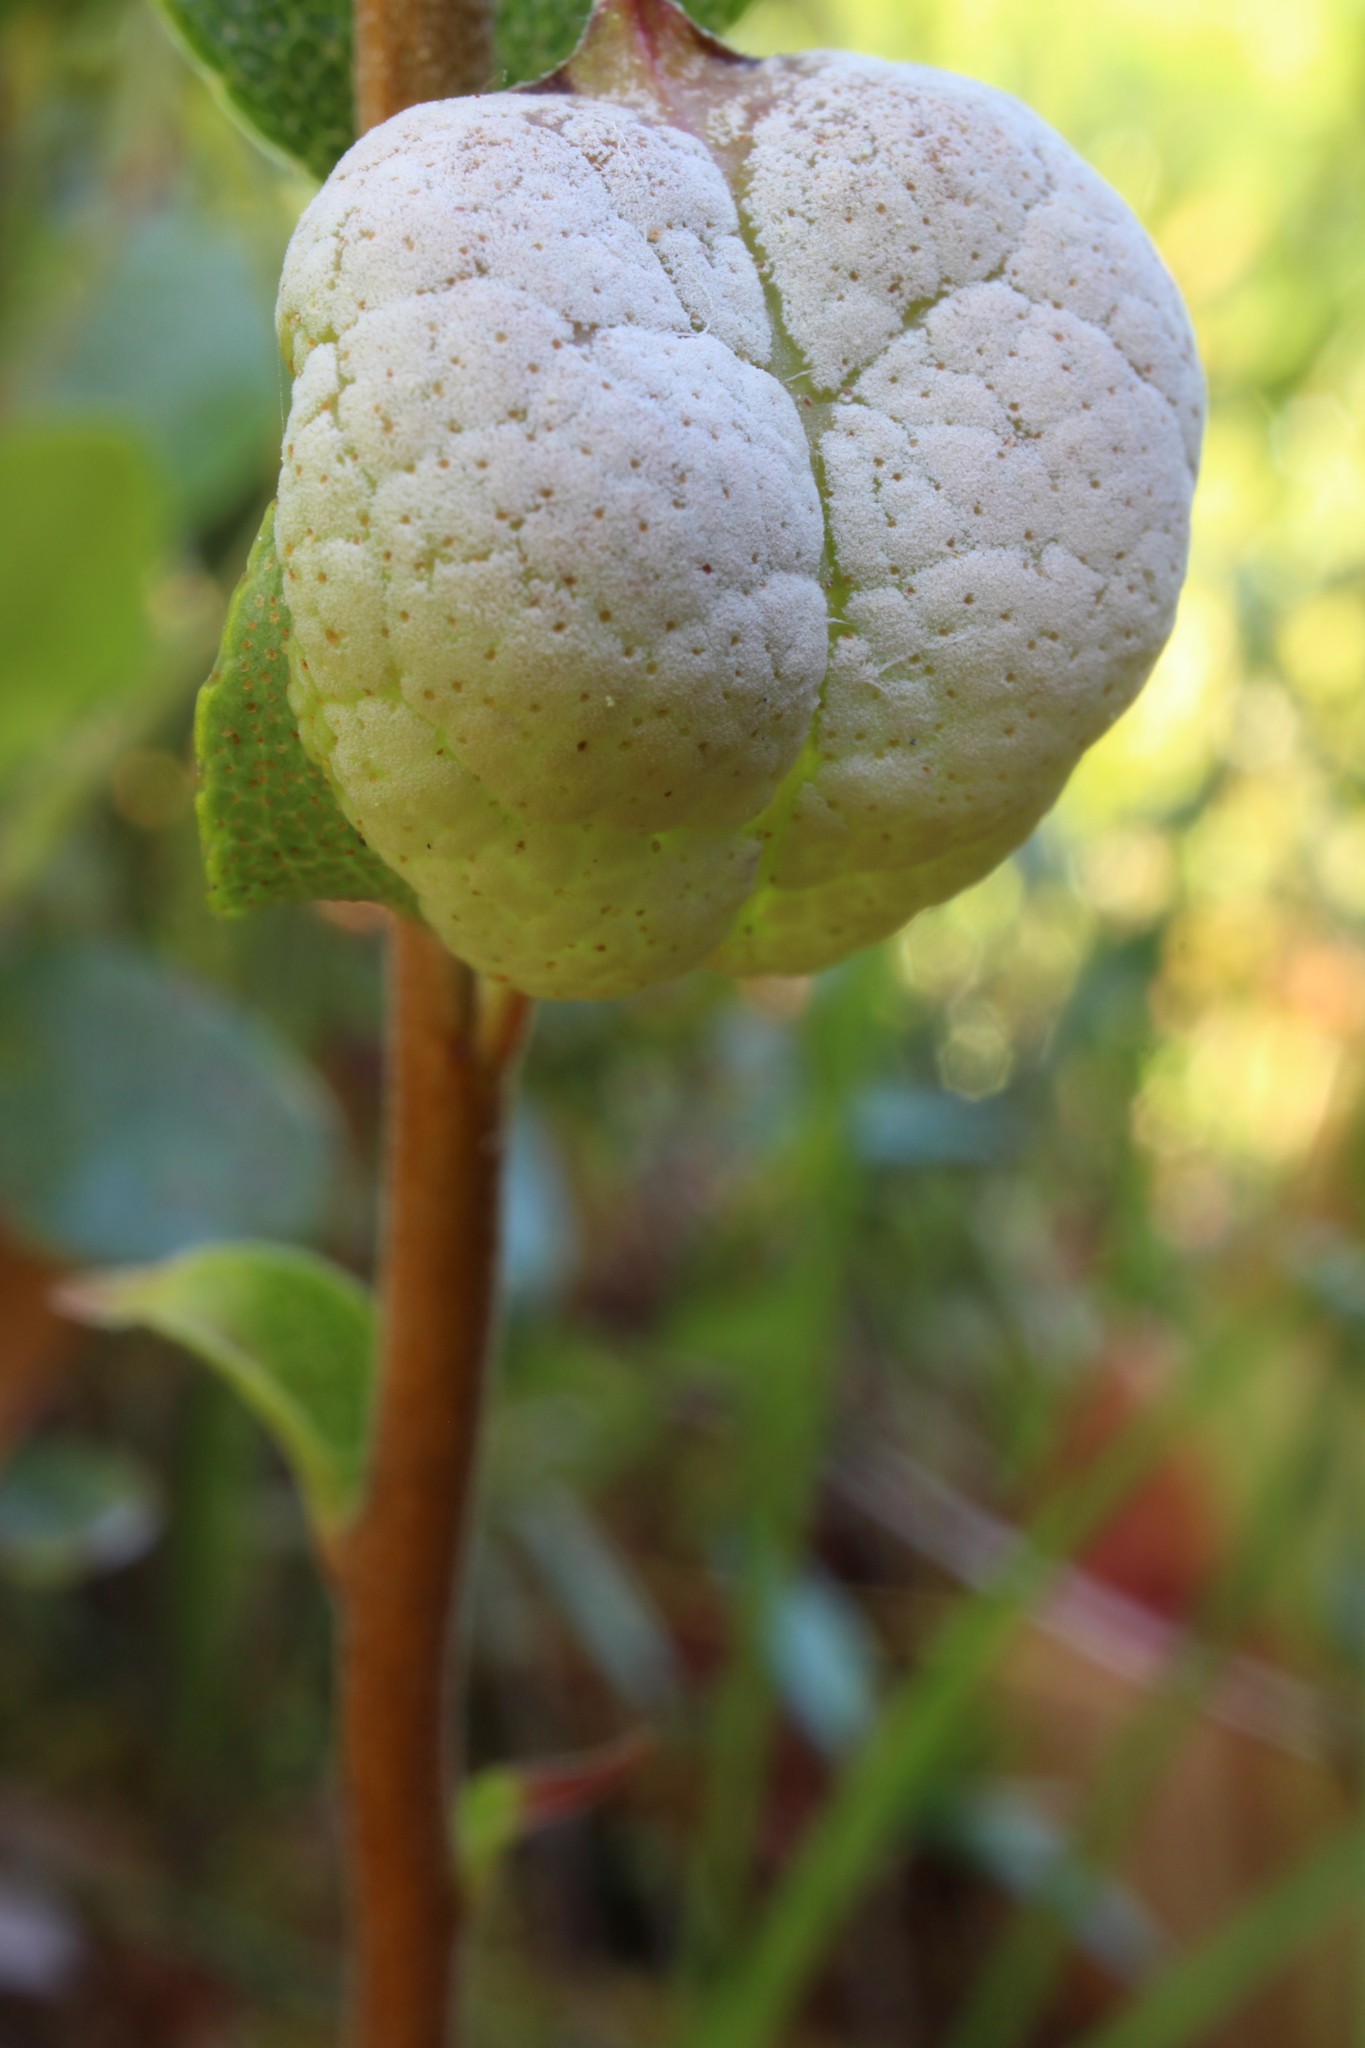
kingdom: Fungi
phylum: Basidiomycota
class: Exobasidiomycetes
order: Exobasidiales
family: Exobasidiaceae
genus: Exobasidium
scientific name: Exobasidium cassandrae
